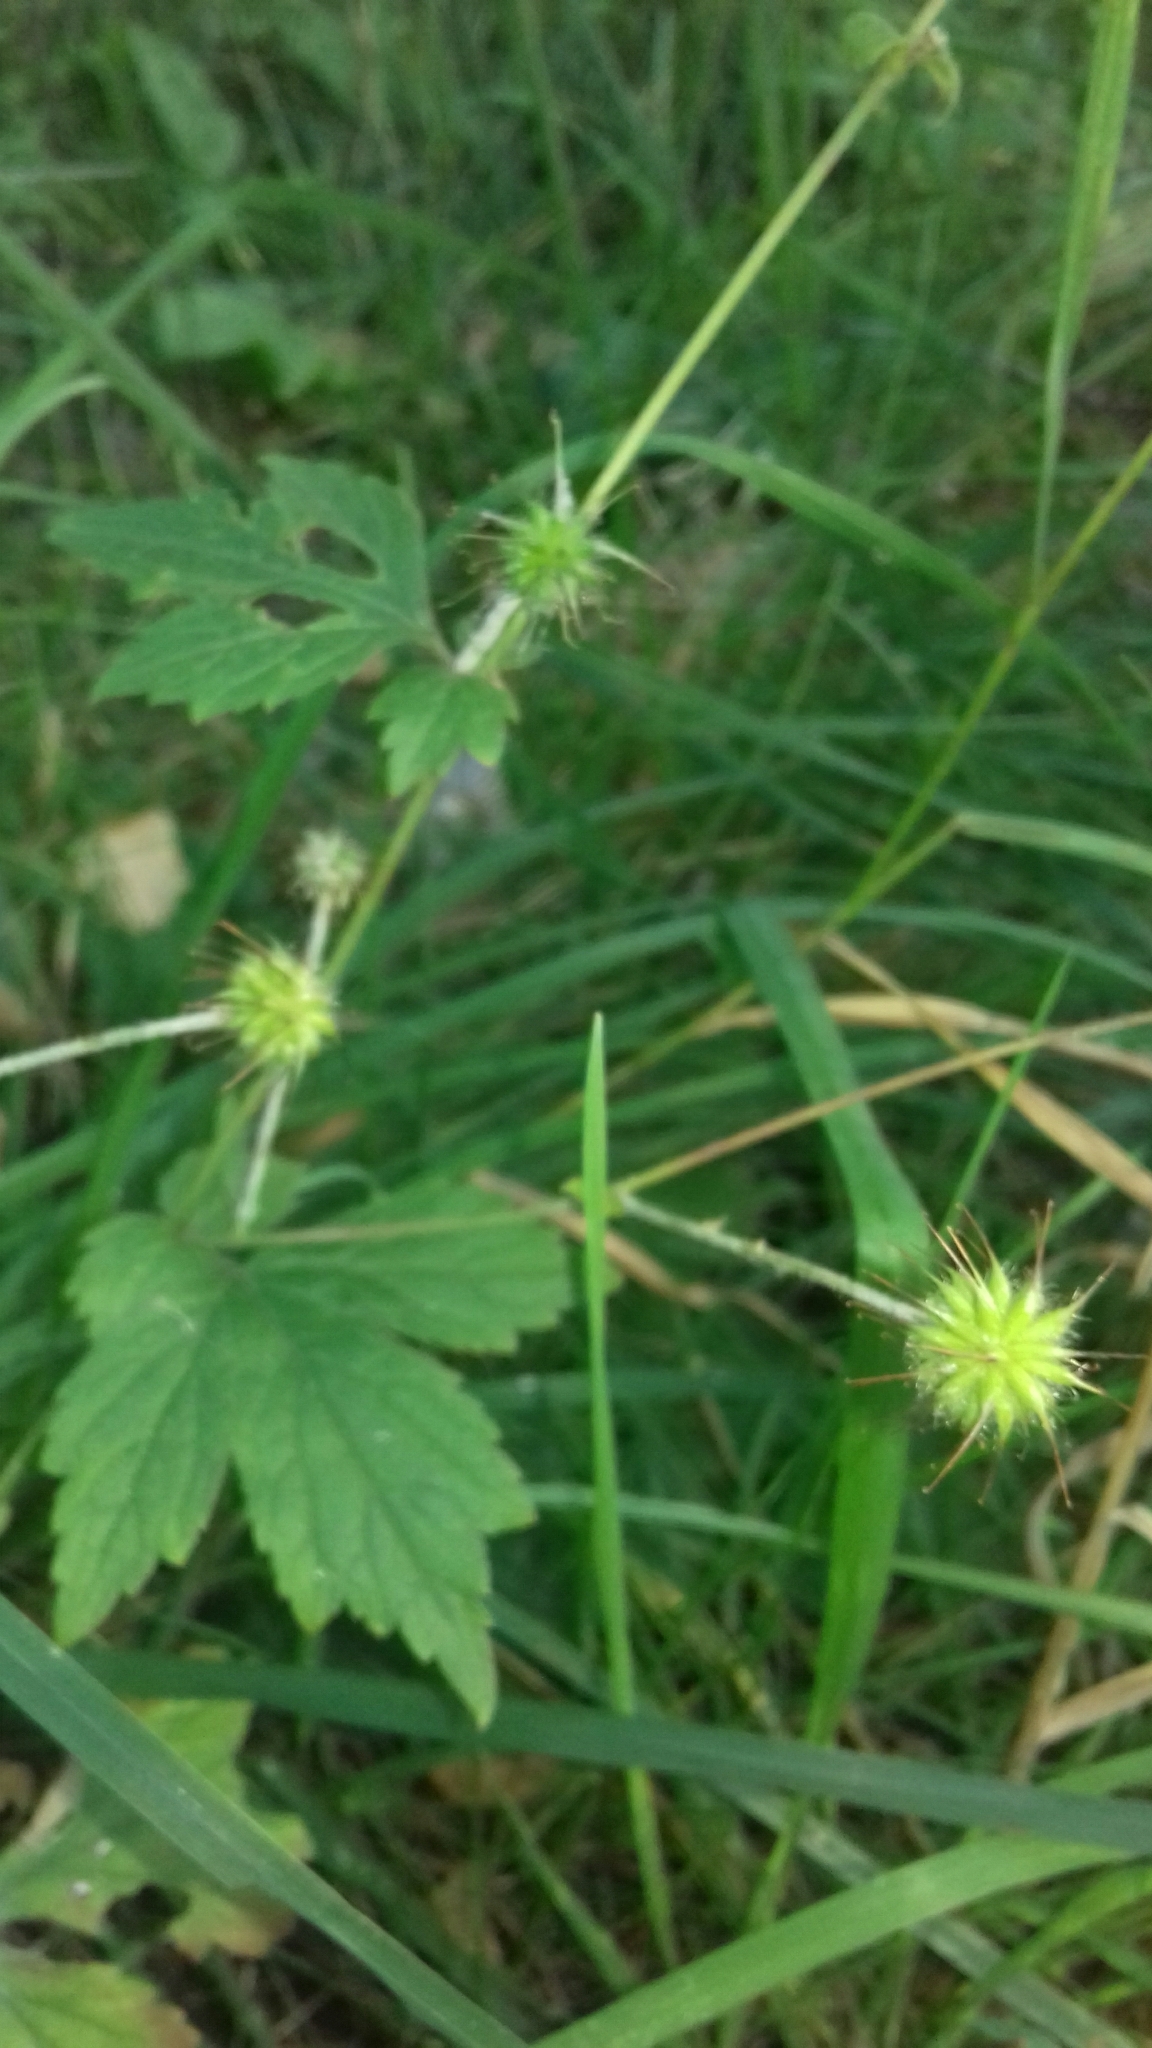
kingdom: Plantae
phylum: Tracheophyta
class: Magnoliopsida
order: Rosales
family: Rosaceae
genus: Geum
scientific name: Geum urbanum
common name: Wood avens
